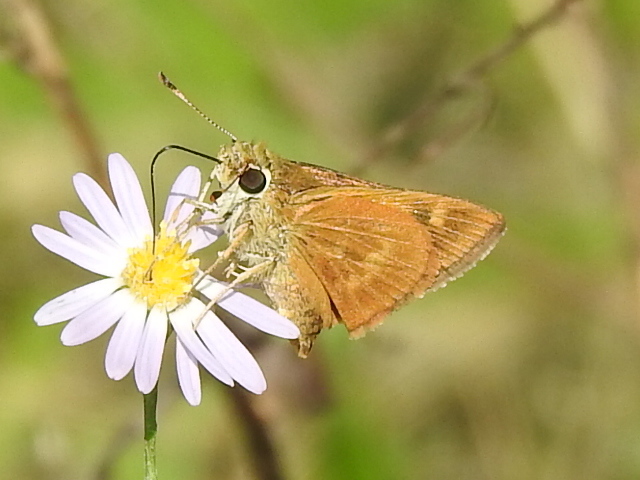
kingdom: Animalia
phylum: Arthropoda
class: Insecta
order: Lepidoptera
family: Hesperiidae
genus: Polites
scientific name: Polites otho
